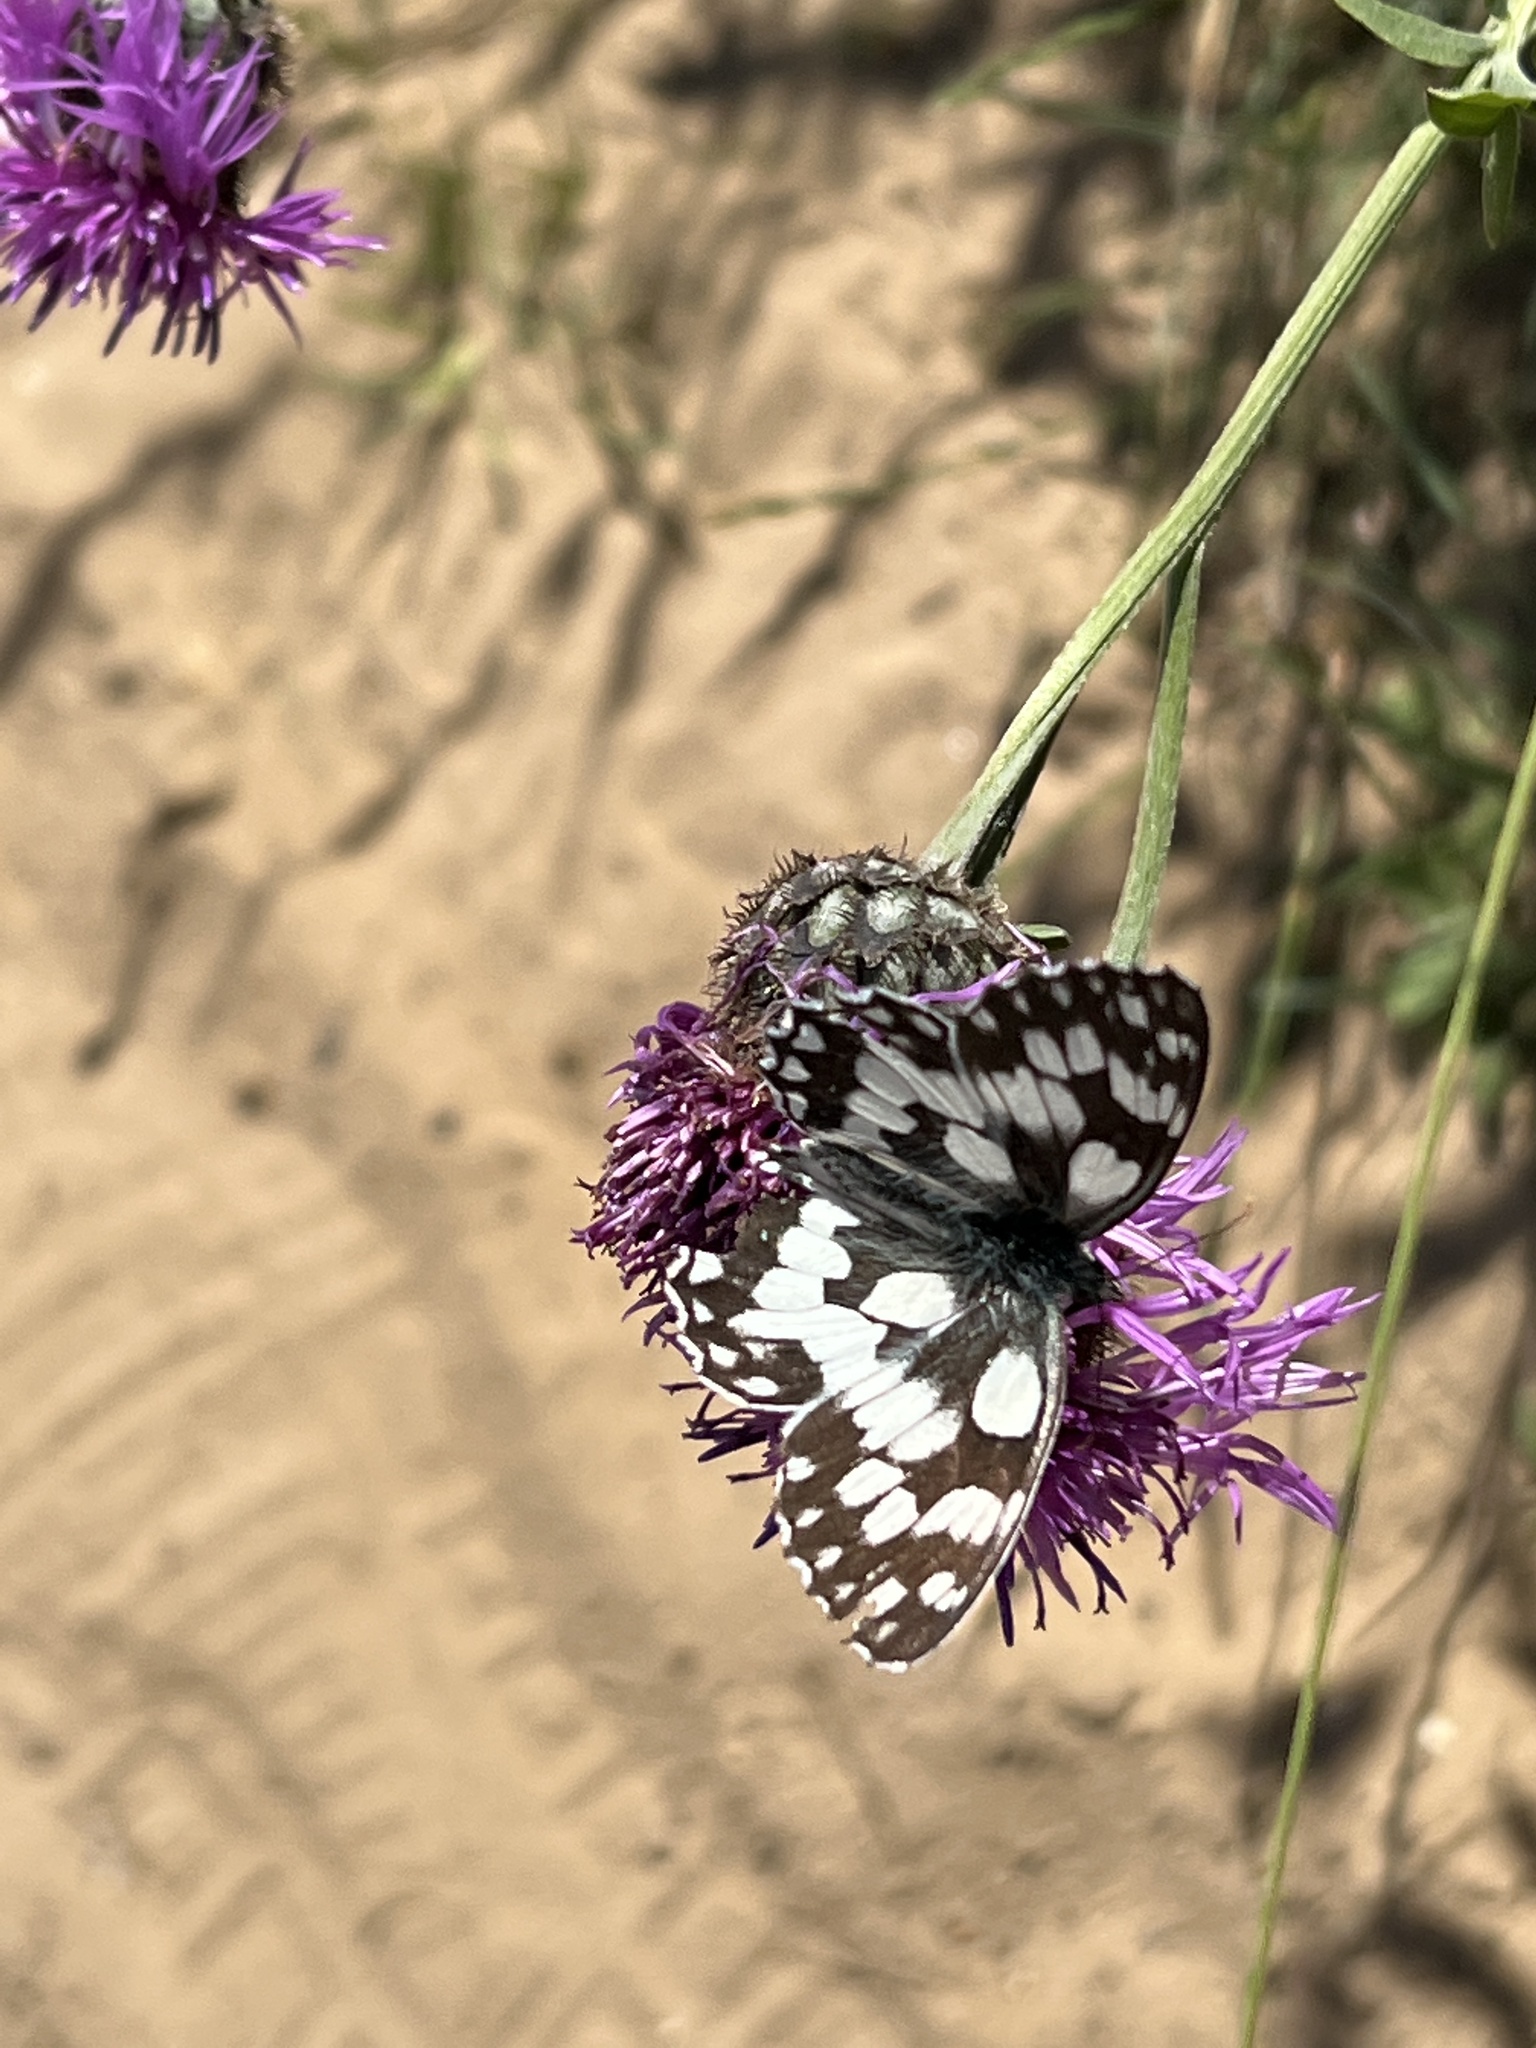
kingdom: Animalia
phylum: Arthropoda
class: Insecta
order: Lepidoptera
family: Nymphalidae
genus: Melanargia
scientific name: Melanargia galathea
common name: Marbled white
